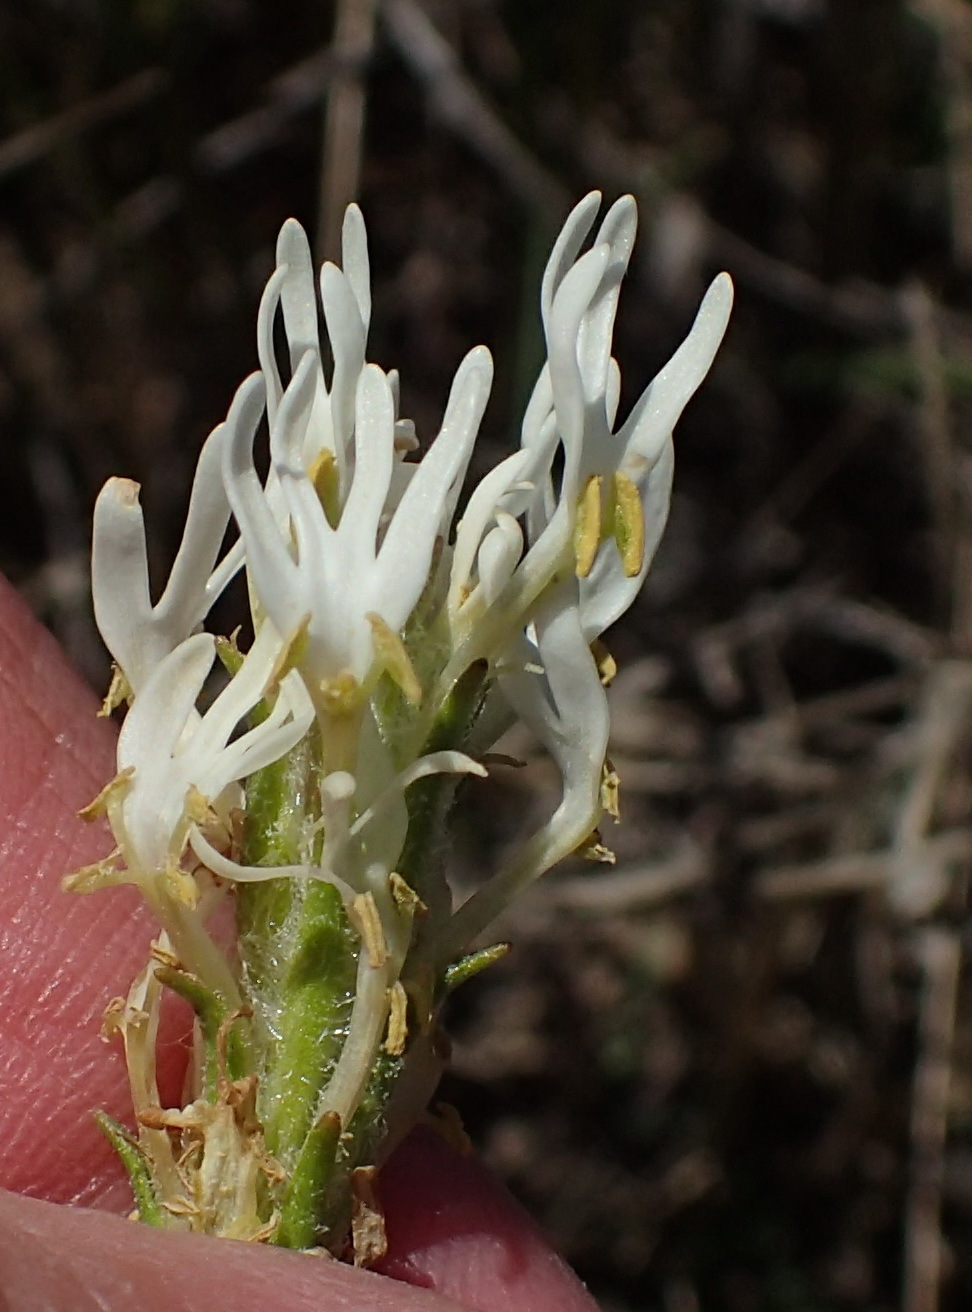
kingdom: Plantae
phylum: Tracheophyta
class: Magnoliopsida
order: Lamiales
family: Scrophulariaceae
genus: Dischisma
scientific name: Dischisma ciliatum
